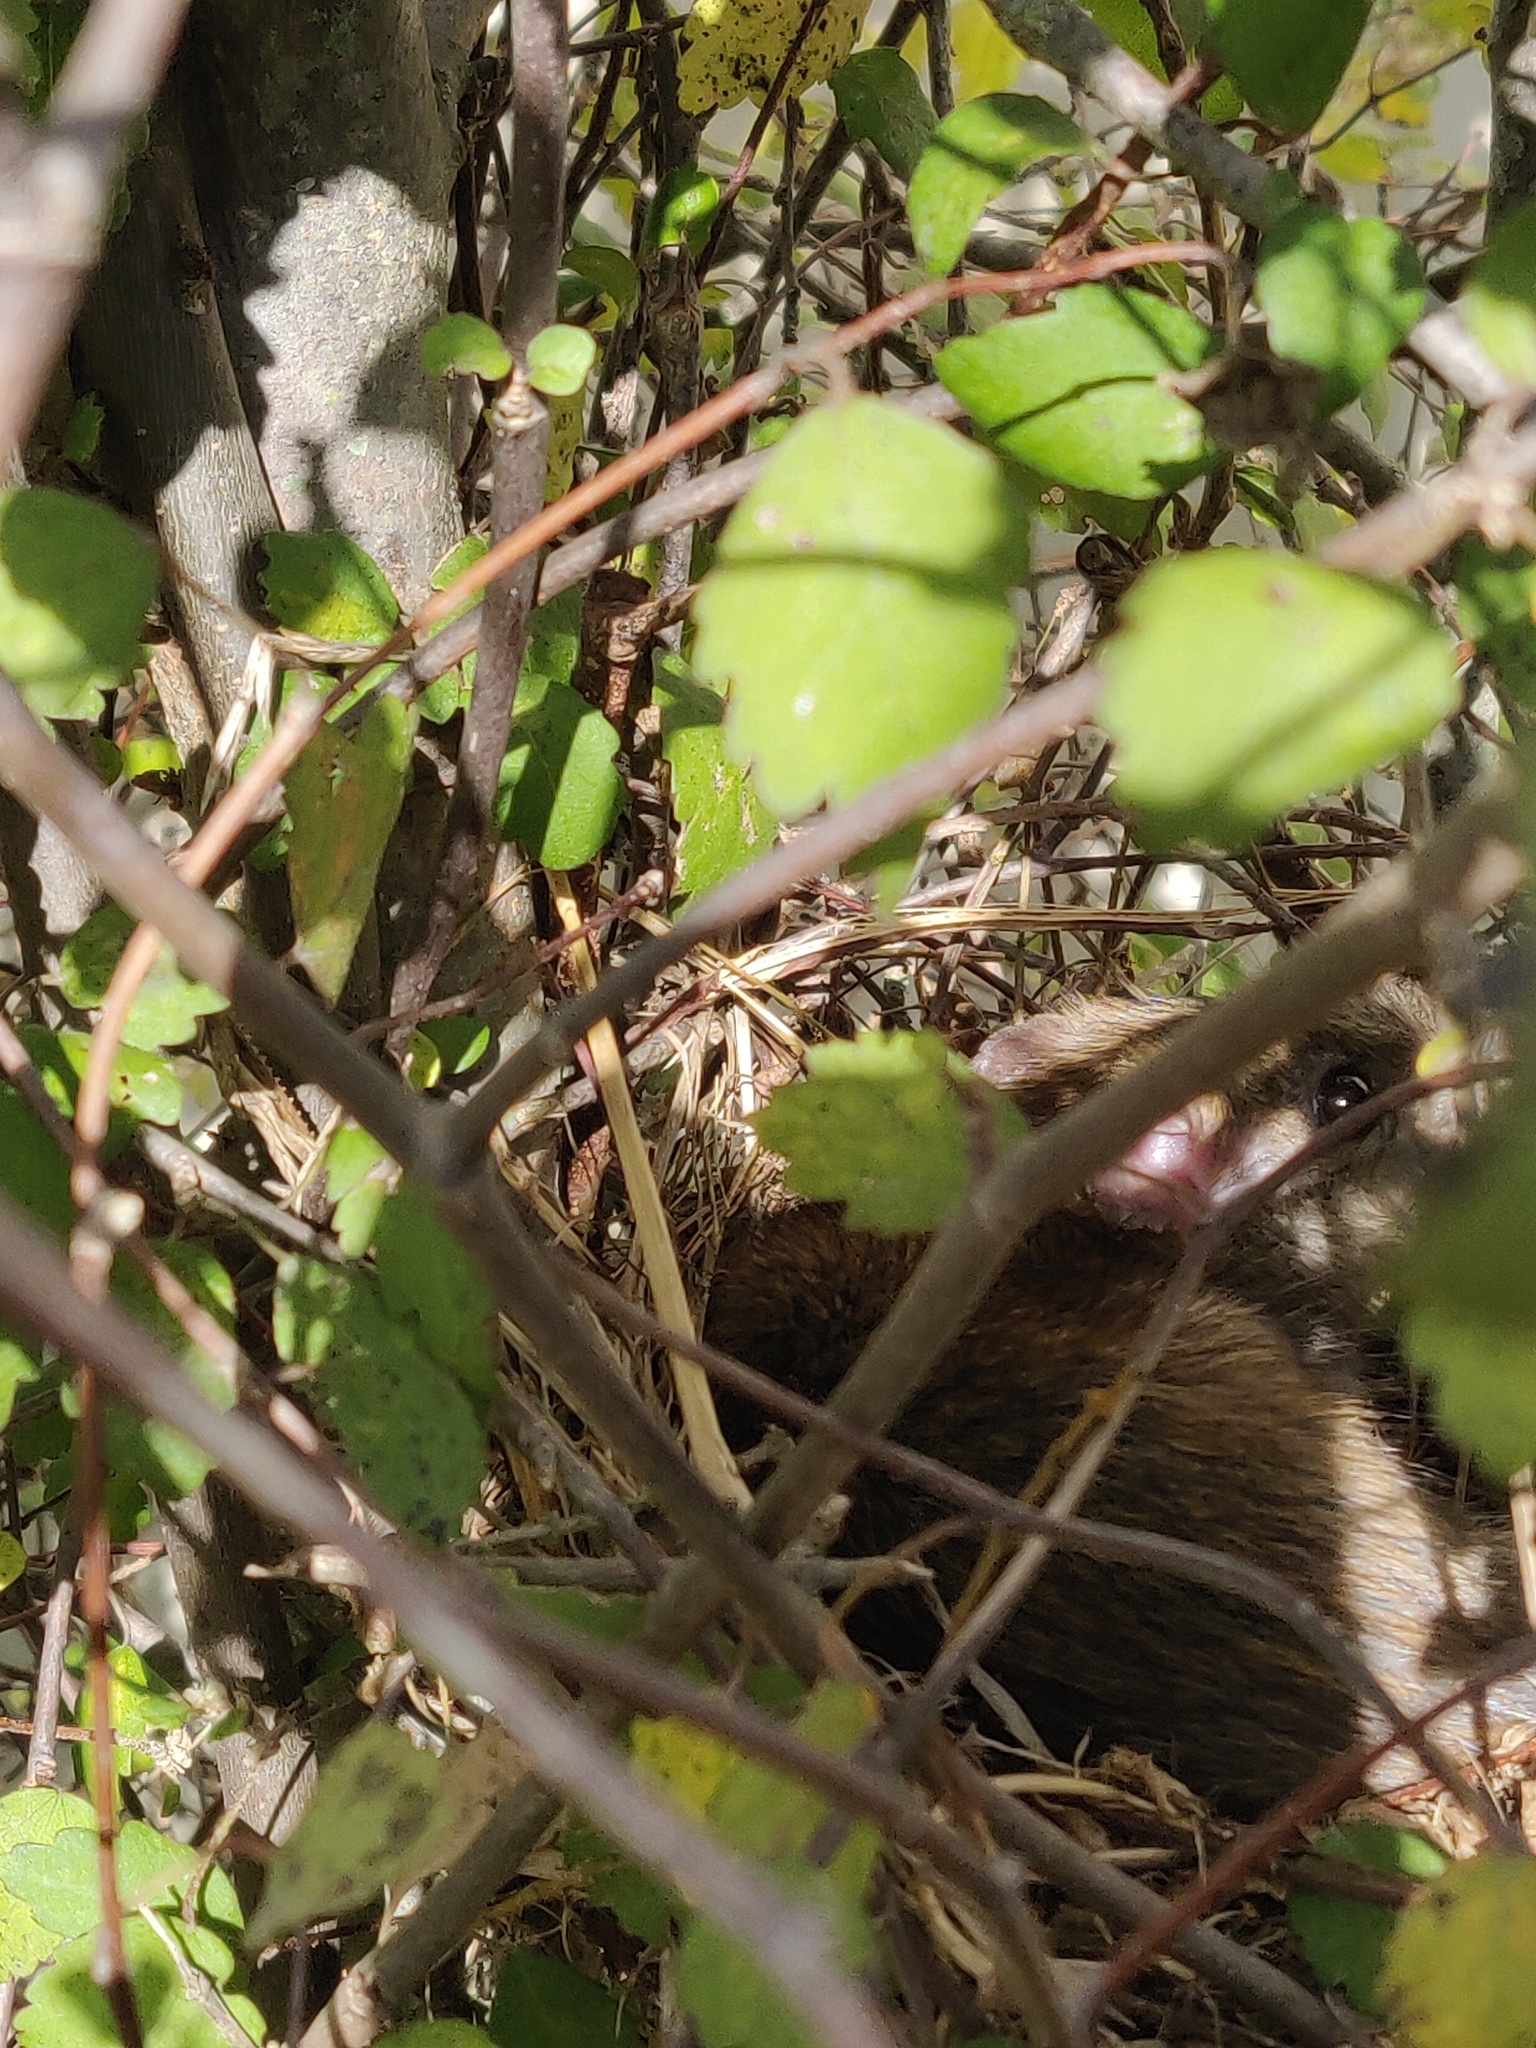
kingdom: Animalia
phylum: Chordata
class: Mammalia
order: Rodentia
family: Muridae
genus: Rattus
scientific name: Rattus norvegicus
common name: Brown rat
